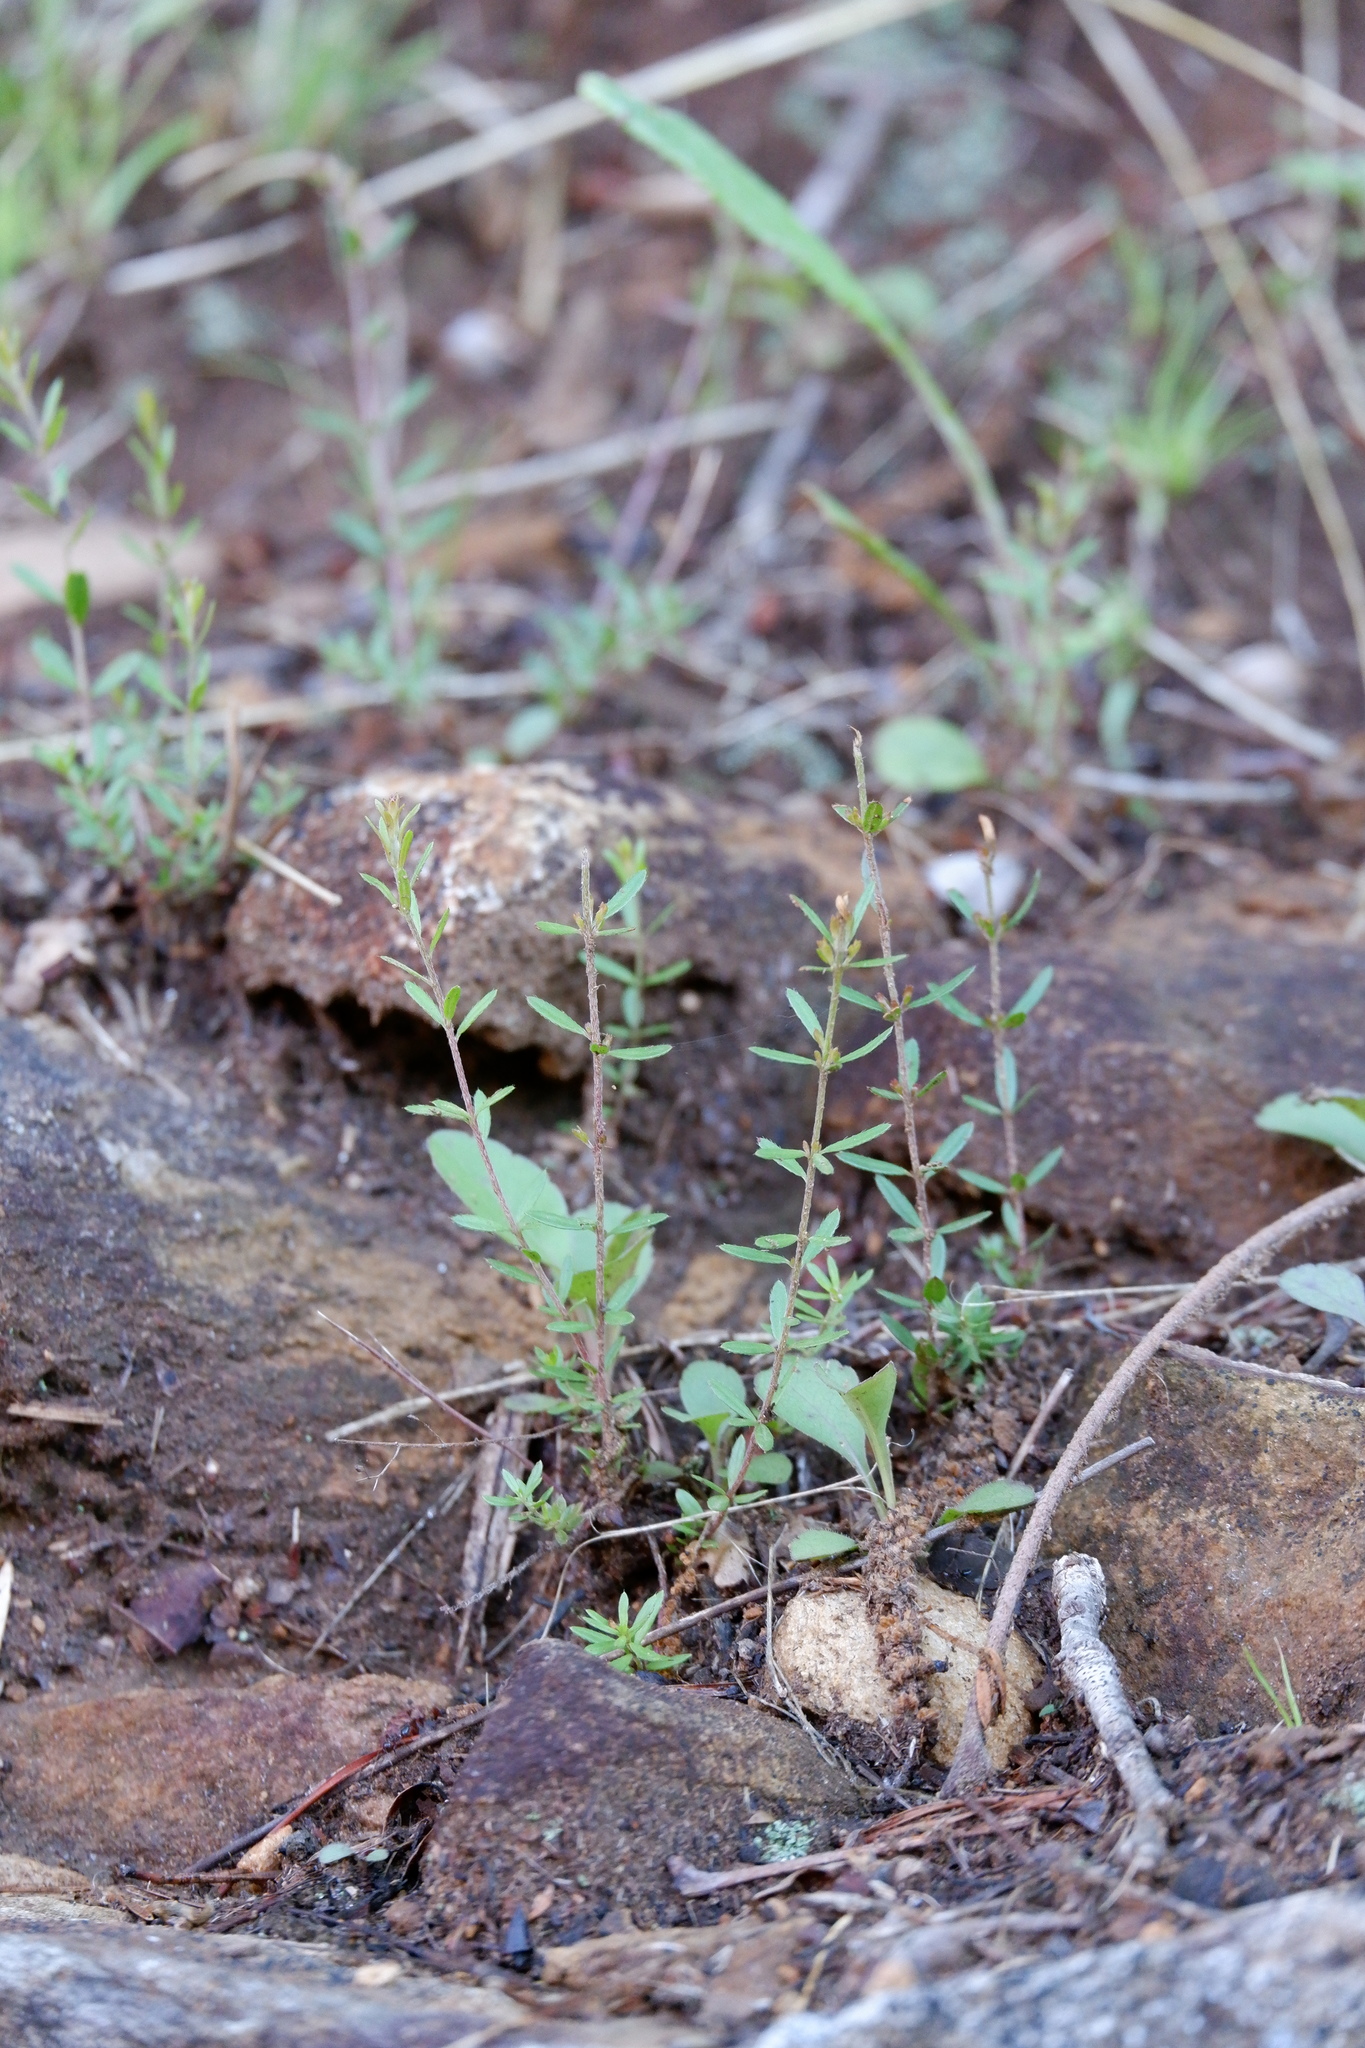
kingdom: Plantae
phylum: Tracheophyta
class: Magnoliopsida
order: Malvales
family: Cistaceae
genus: Lechea
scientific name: Lechea racemulosa
